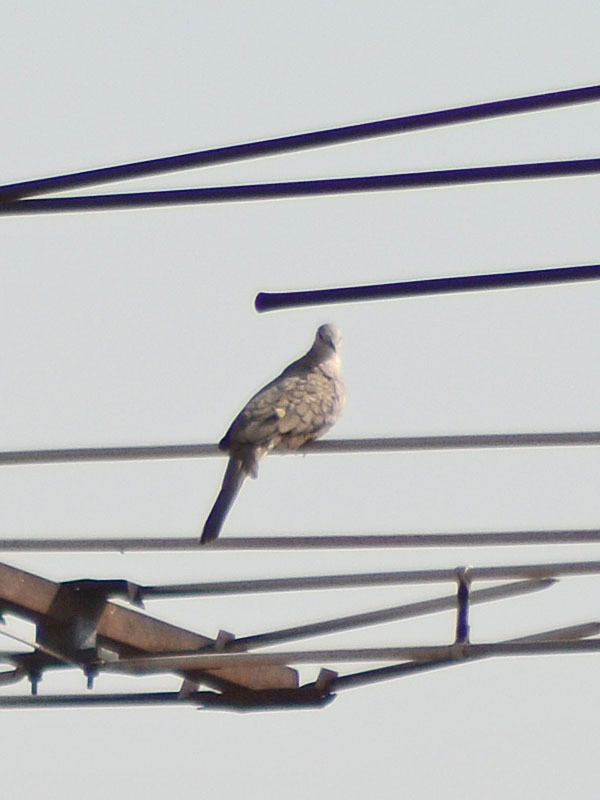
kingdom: Animalia
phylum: Chordata
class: Aves
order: Columbiformes
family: Columbidae
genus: Columbina
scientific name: Columbina inca
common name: Inca dove
